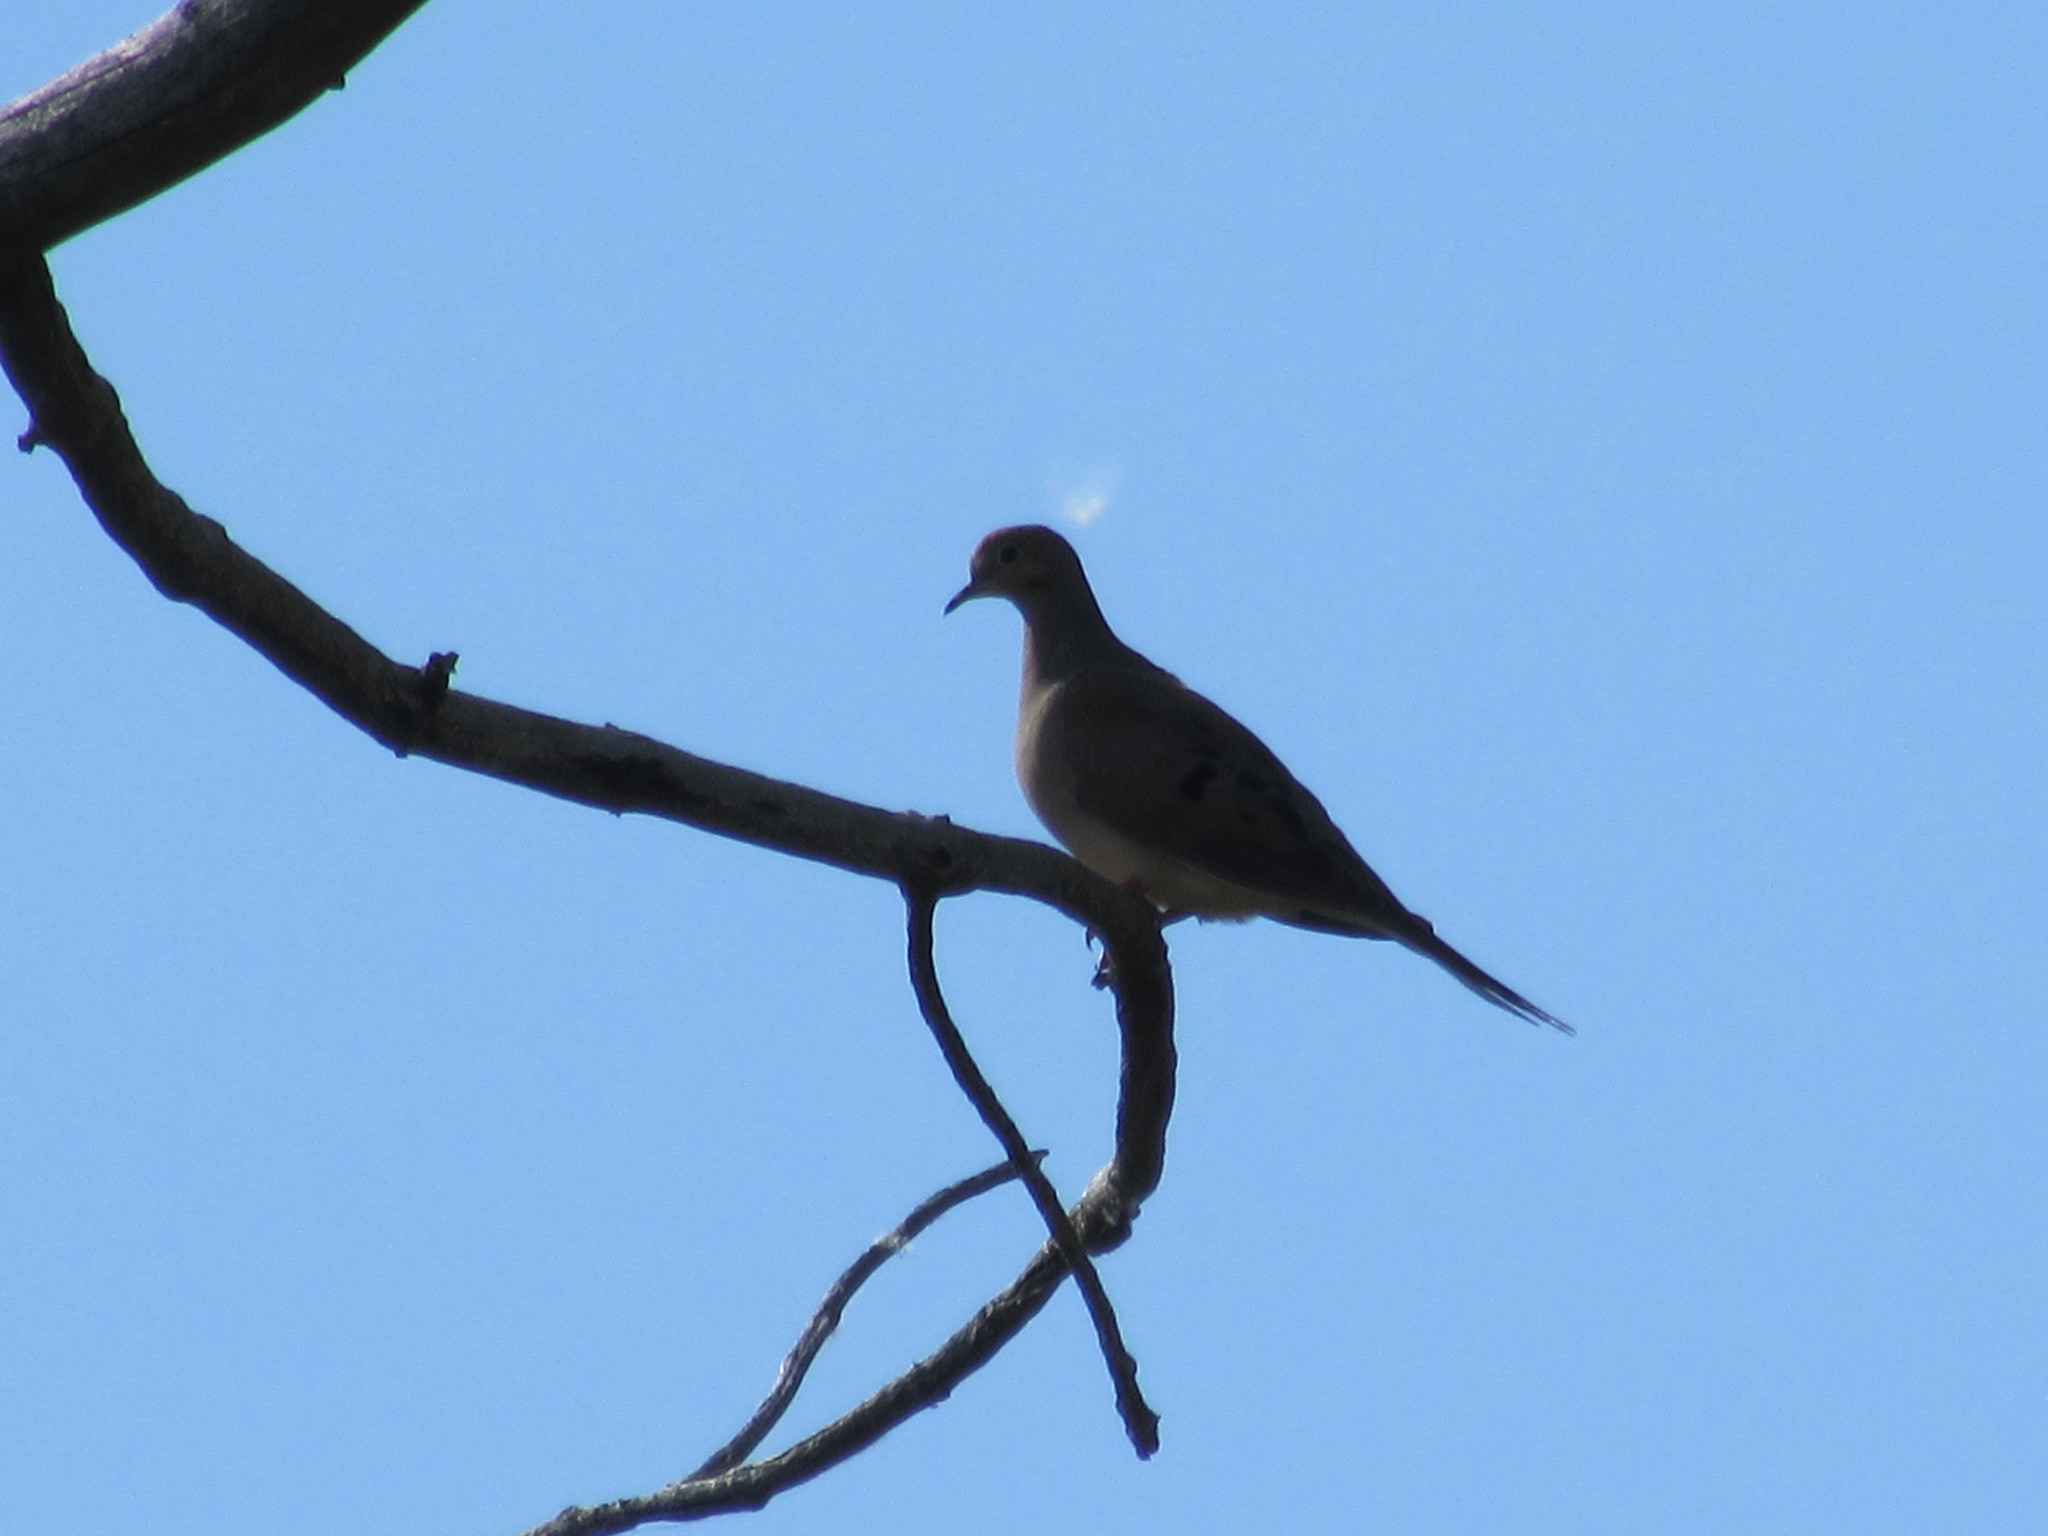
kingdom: Animalia
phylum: Chordata
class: Aves
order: Columbiformes
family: Columbidae
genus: Zenaida
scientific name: Zenaida macroura
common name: Mourning dove
